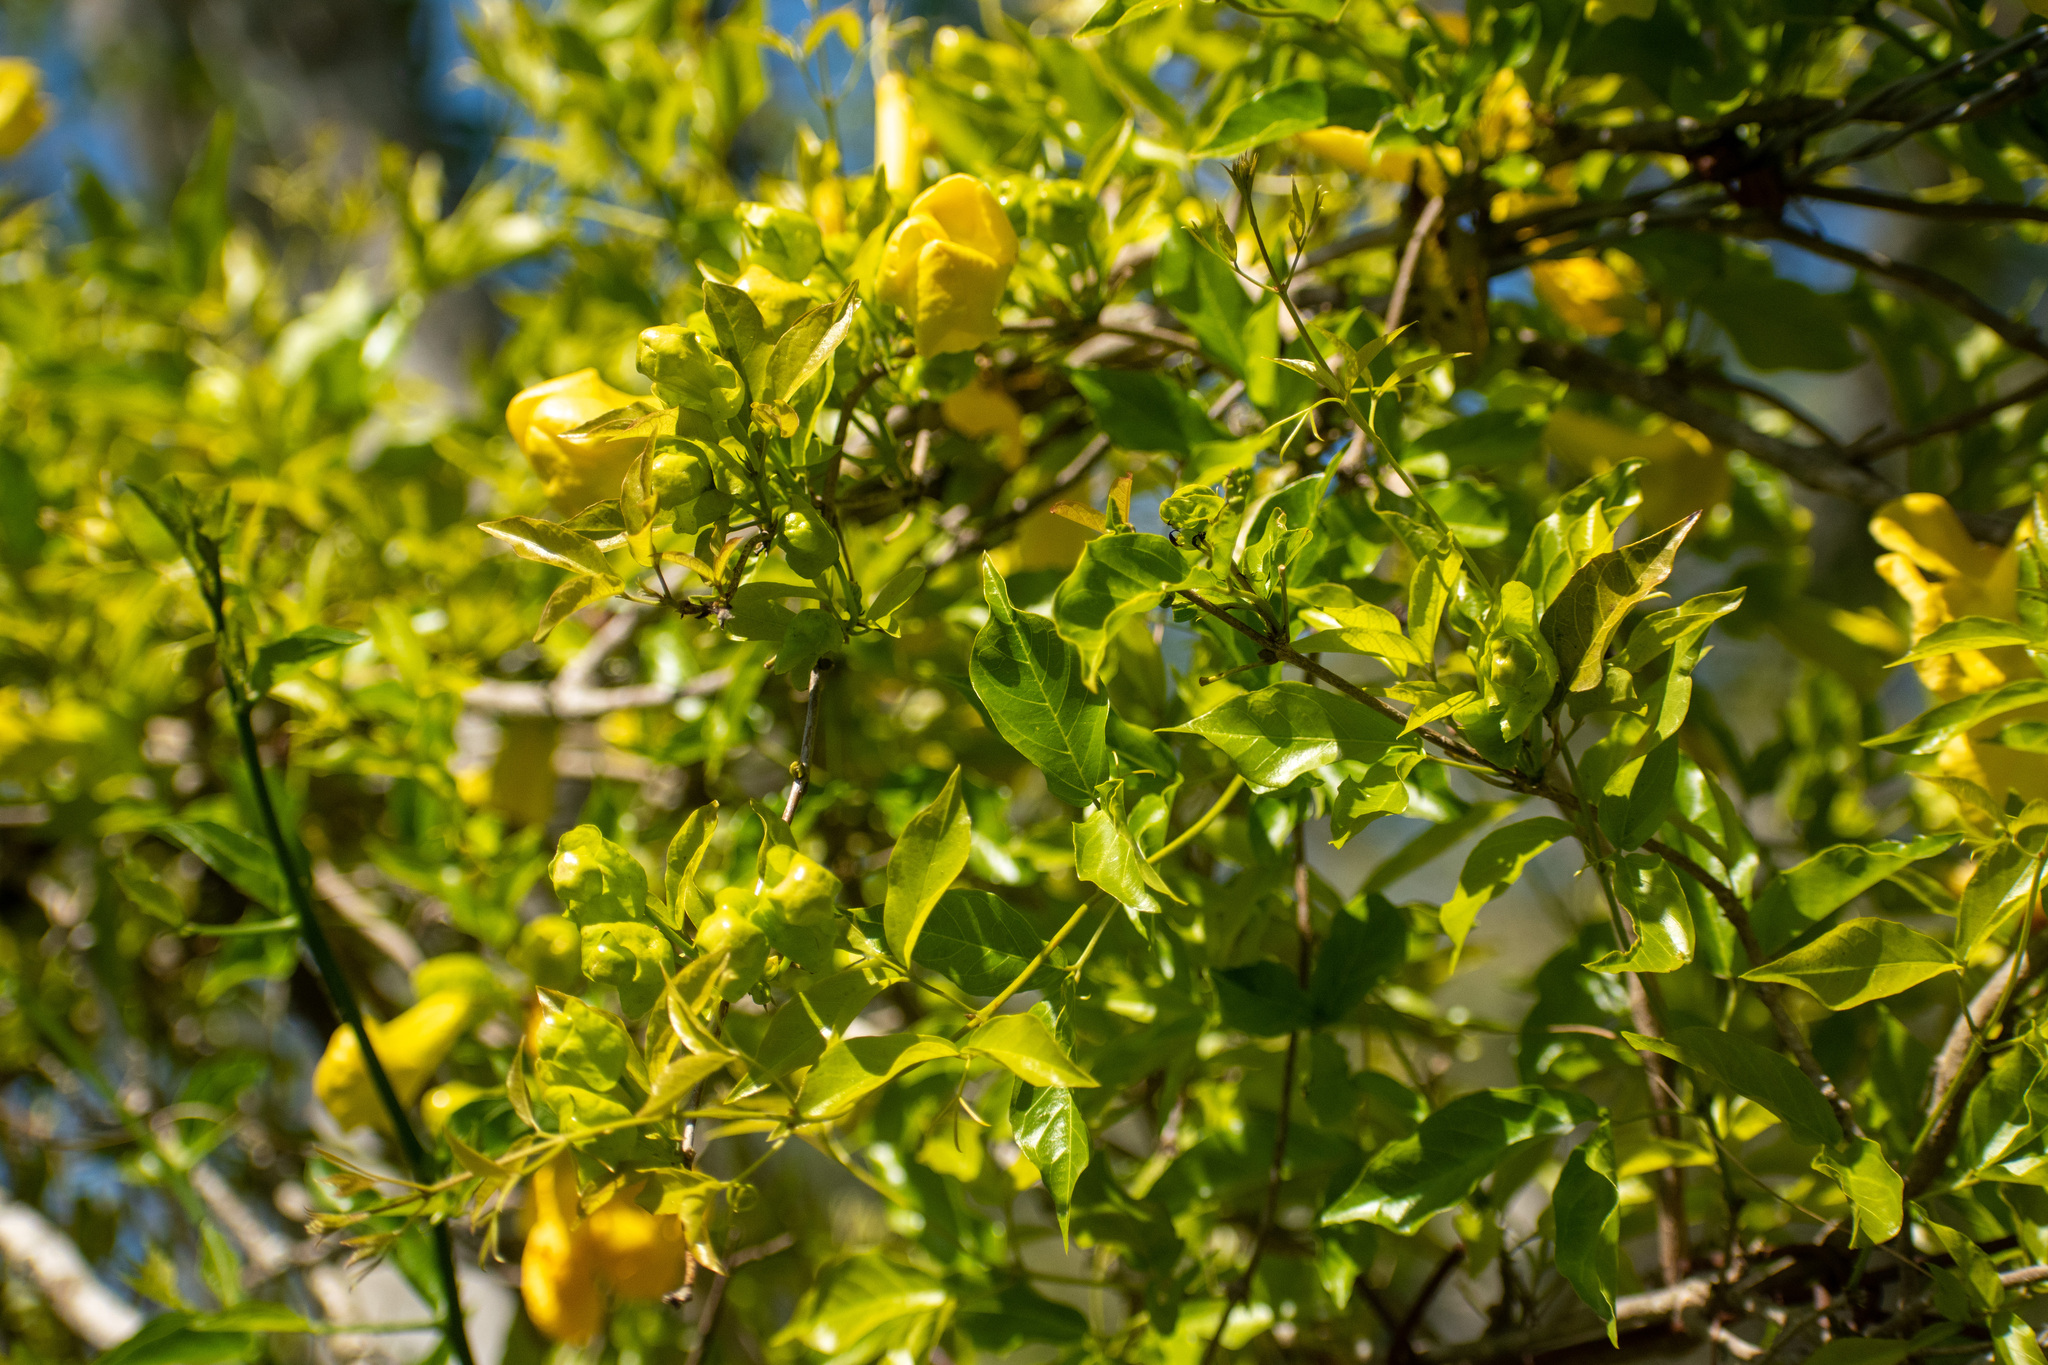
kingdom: Plantae
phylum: Tracheophyta
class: Magnoliopsida
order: Lamiales
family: Bignoniaceae
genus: Dolichandra
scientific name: Dolichandra unguis-cati
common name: Catclaw vine
